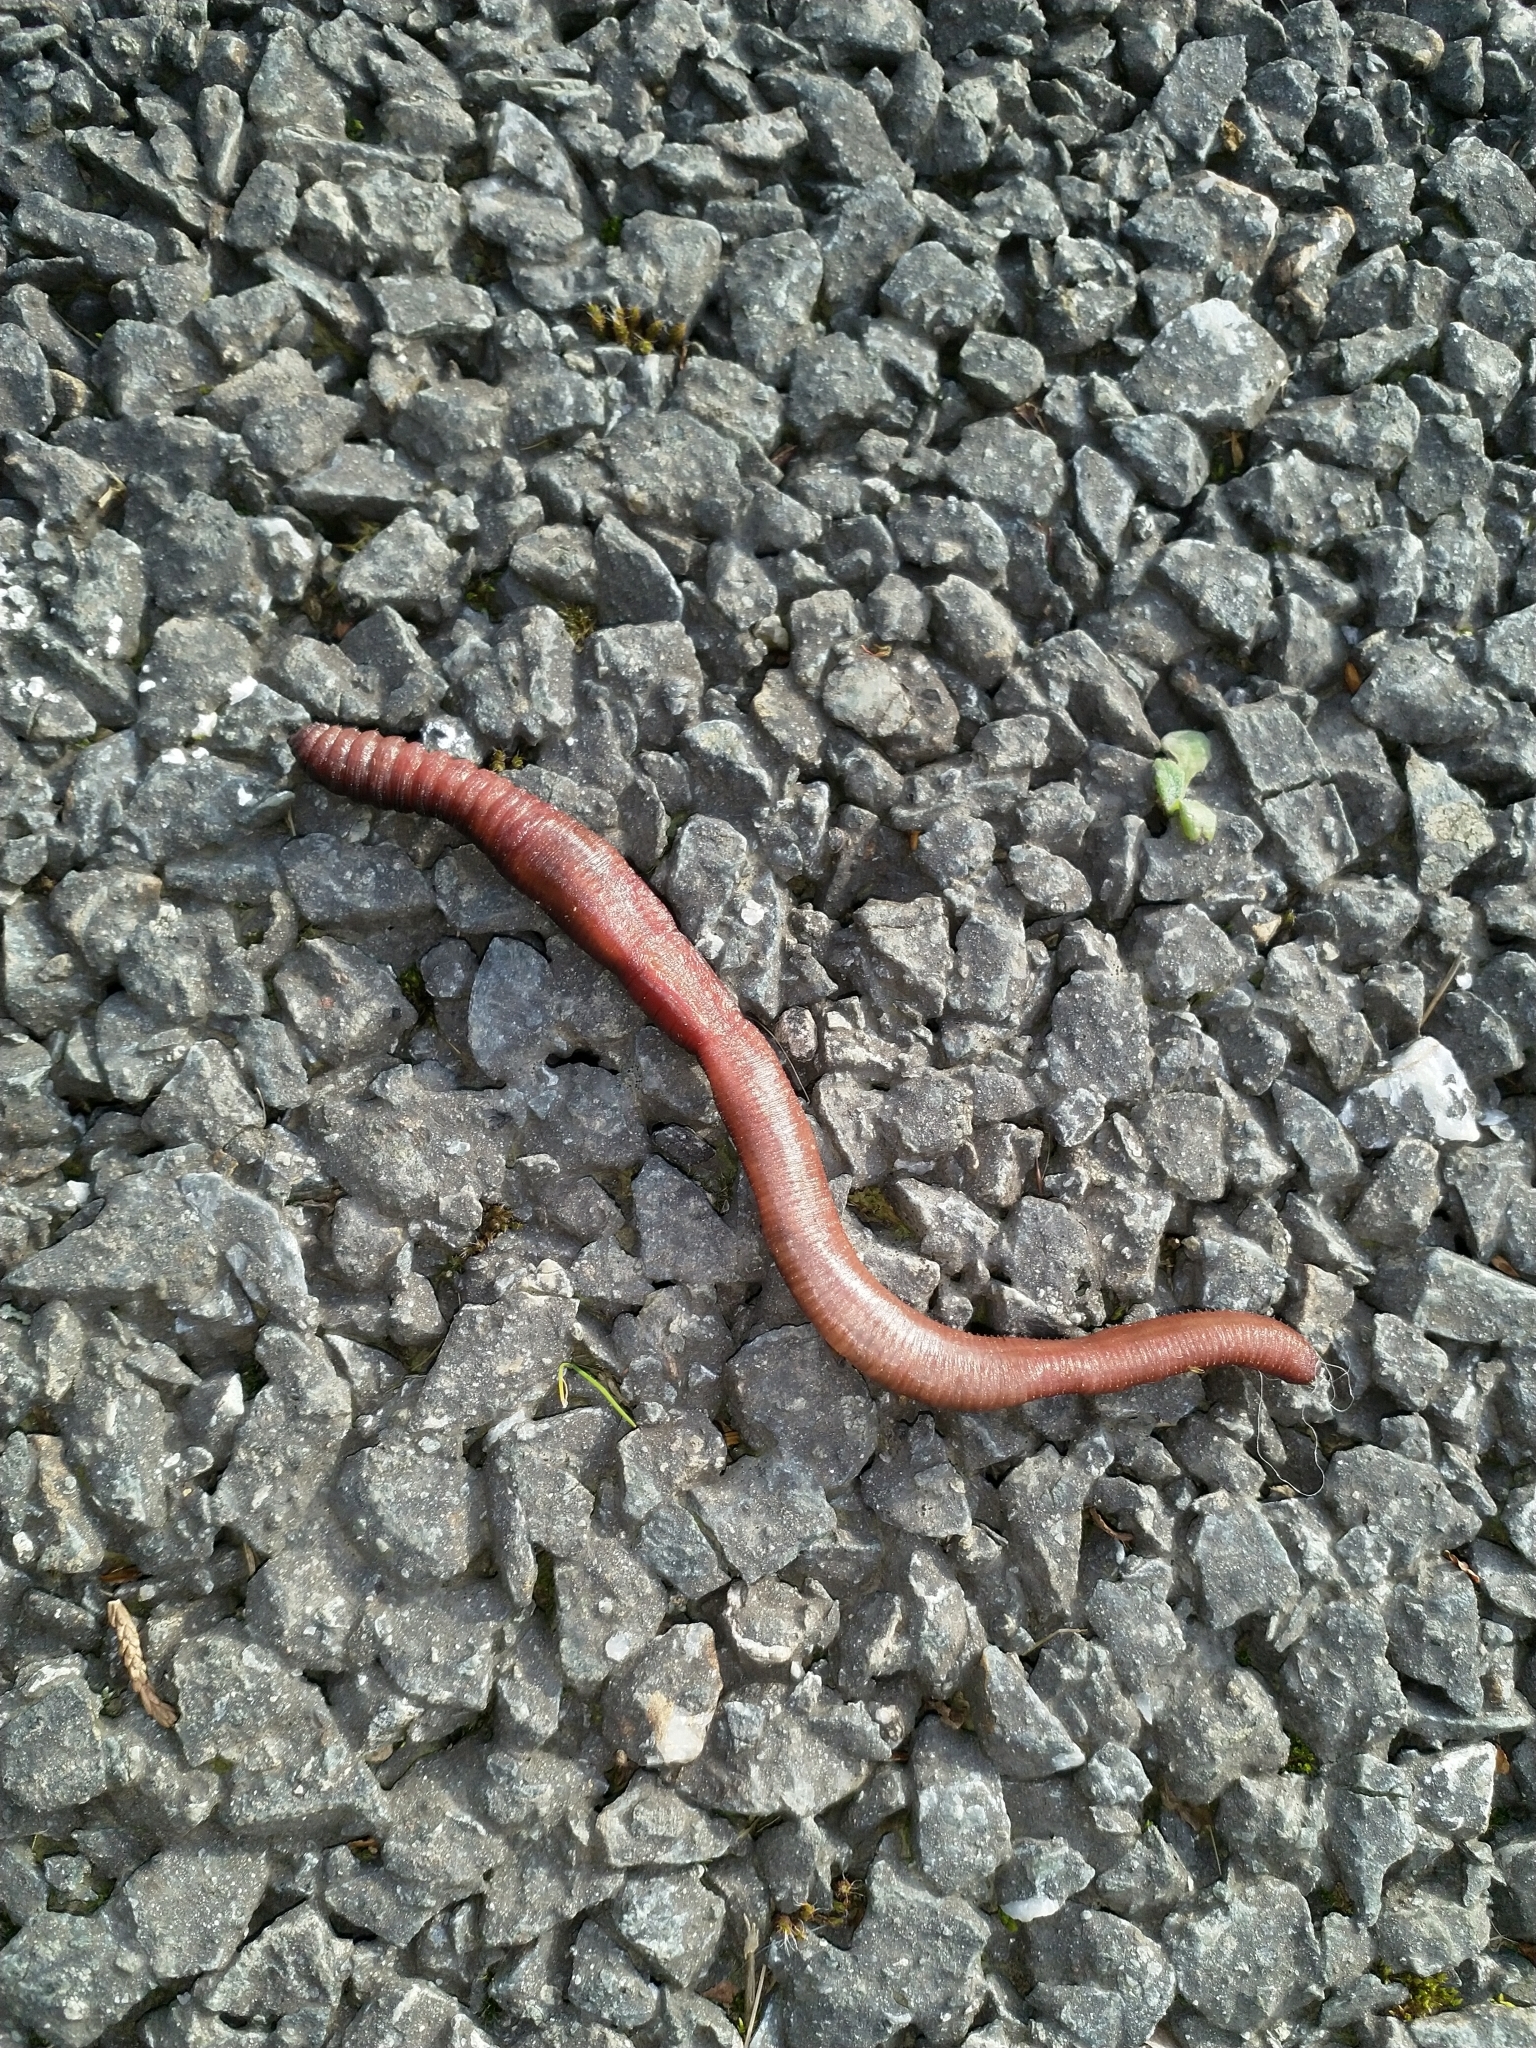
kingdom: Animalia
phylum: Annelida
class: Clitellata
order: Crassiclitellata
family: Lumbricidae
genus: Lumbricus
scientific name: Lumbricus terrestris
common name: Common earthworm
